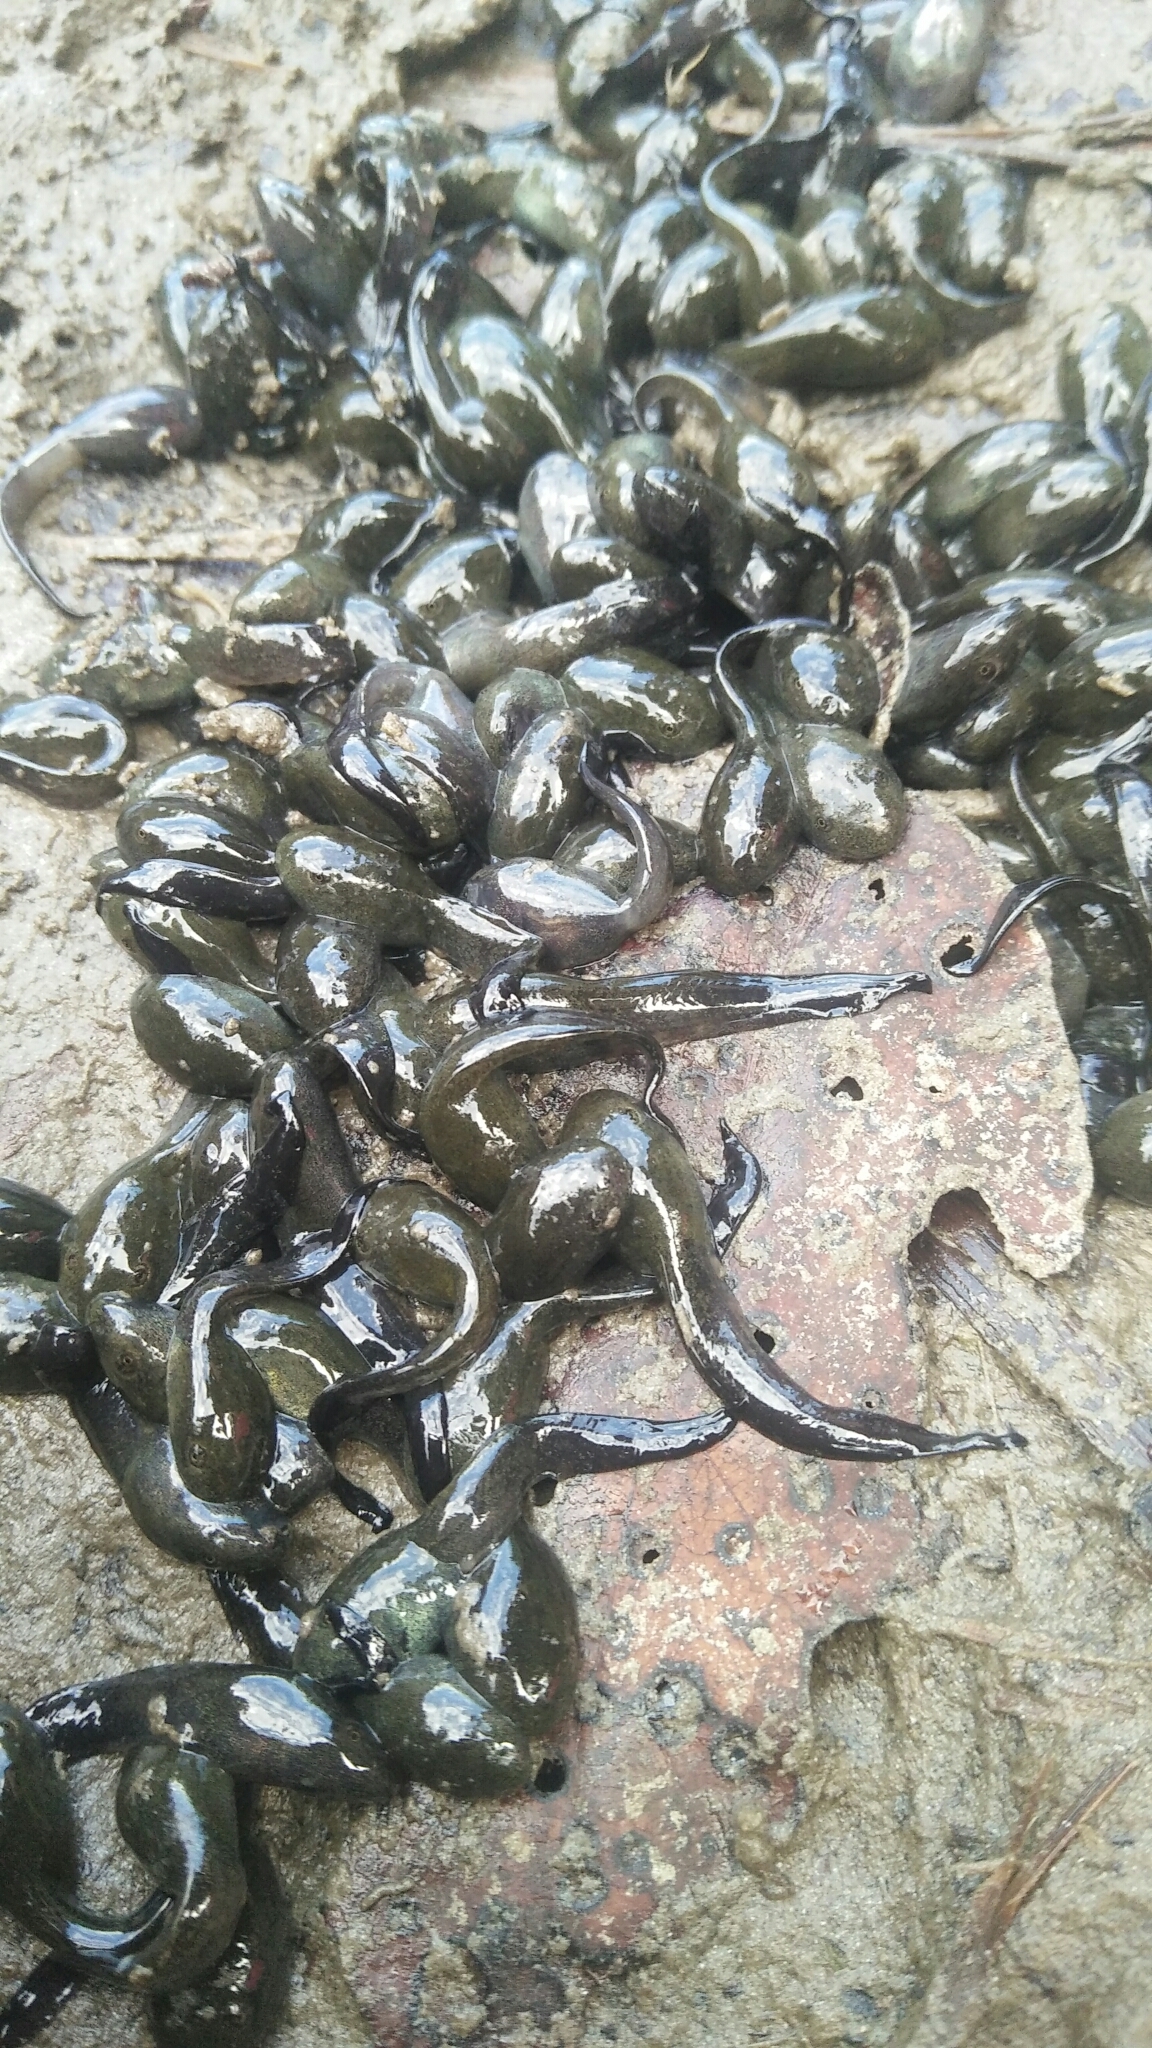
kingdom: Animalia
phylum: Chordata
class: Amphibia
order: Anura
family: Bufonidae
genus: Bufo
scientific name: Bufo bankorensis
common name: Bankor toad
